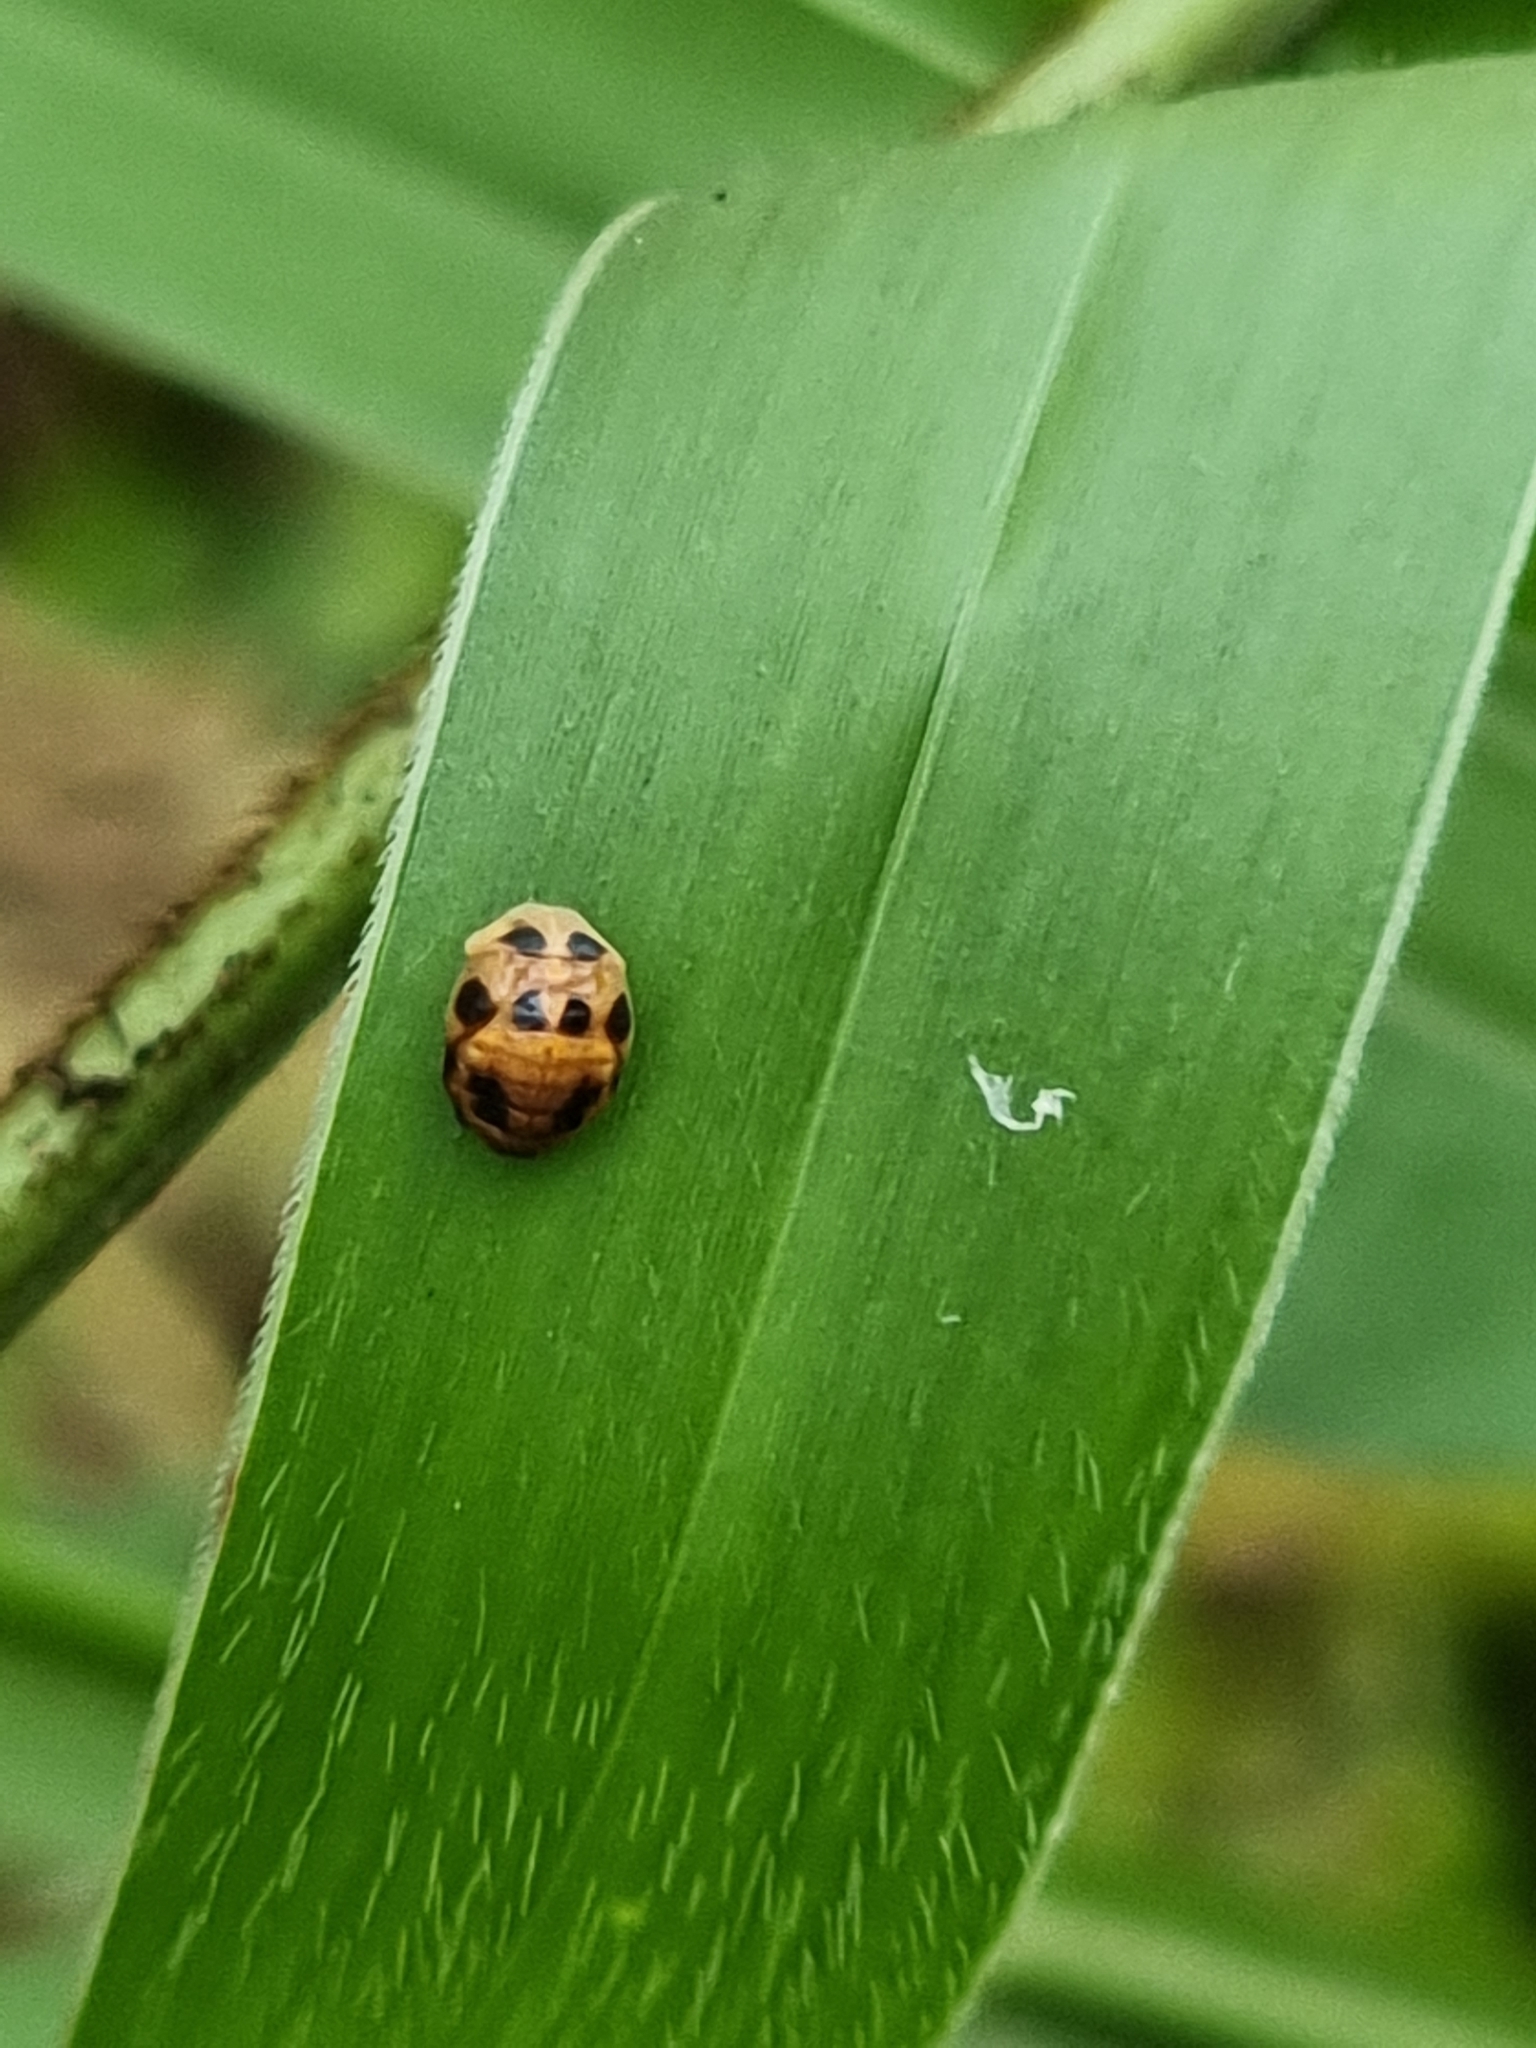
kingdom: Animalia
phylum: Arthropoda
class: Insecta
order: Coleoptera
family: Coccinellidae
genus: Coelophora
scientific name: Coelophora inaequalis
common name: Common australian lady beetle
